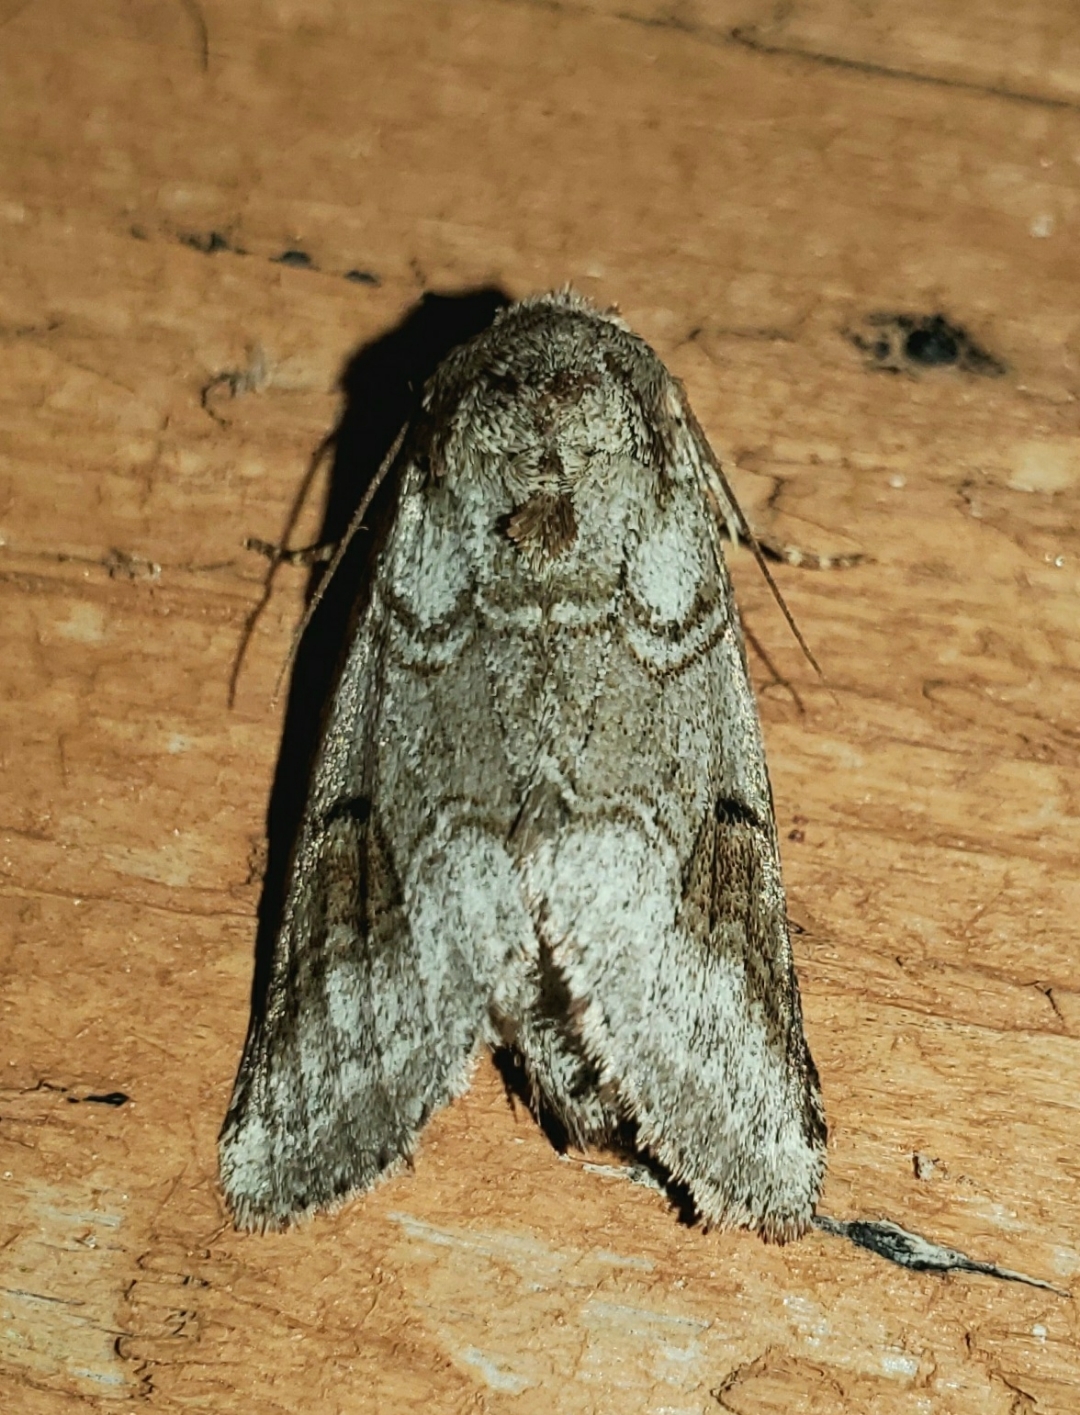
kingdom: Animalia
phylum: Arthropoda
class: Insecta
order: Lepidoptera
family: Notodontidae
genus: Lochmaeus
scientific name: Lochmaeus bilineata
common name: Double-lined prominent
